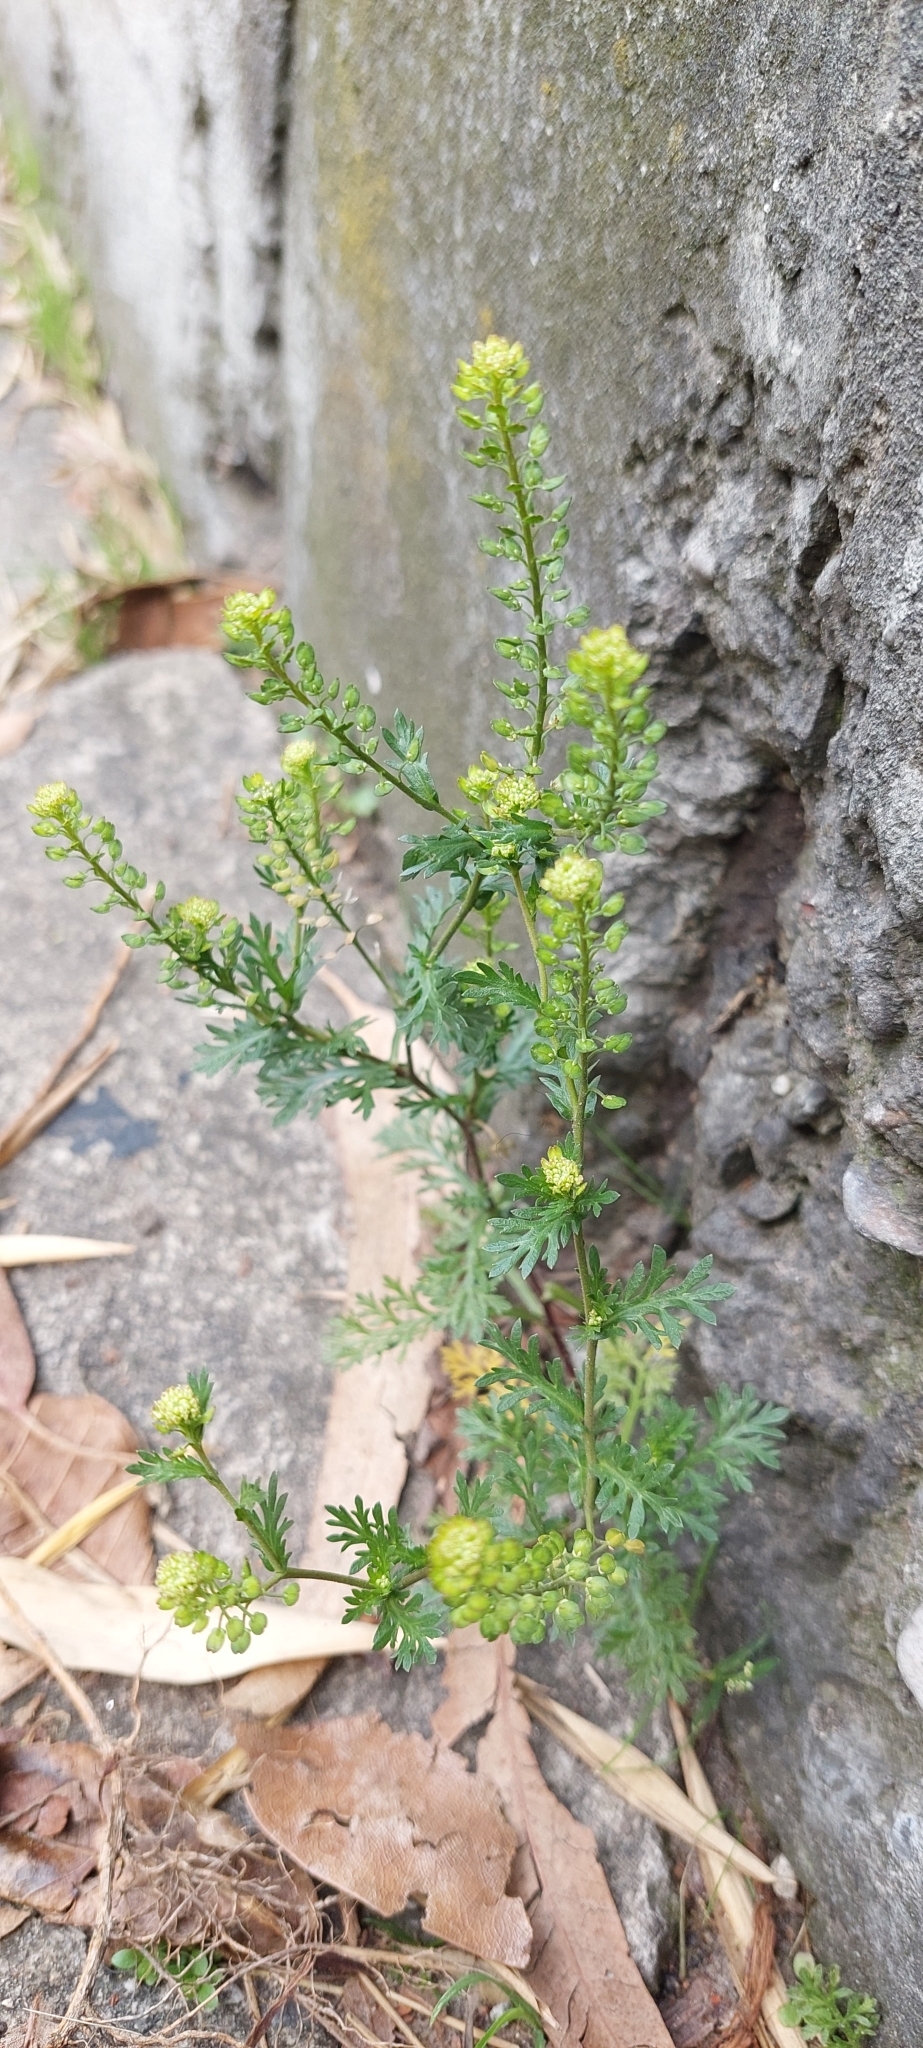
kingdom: Plantae
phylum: Tracheophyta
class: Magnoliopsida
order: Brassicales
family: Brassicaceae
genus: Lepidium
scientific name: Lepidium bipinnatifidum
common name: Wayside pepperwort
